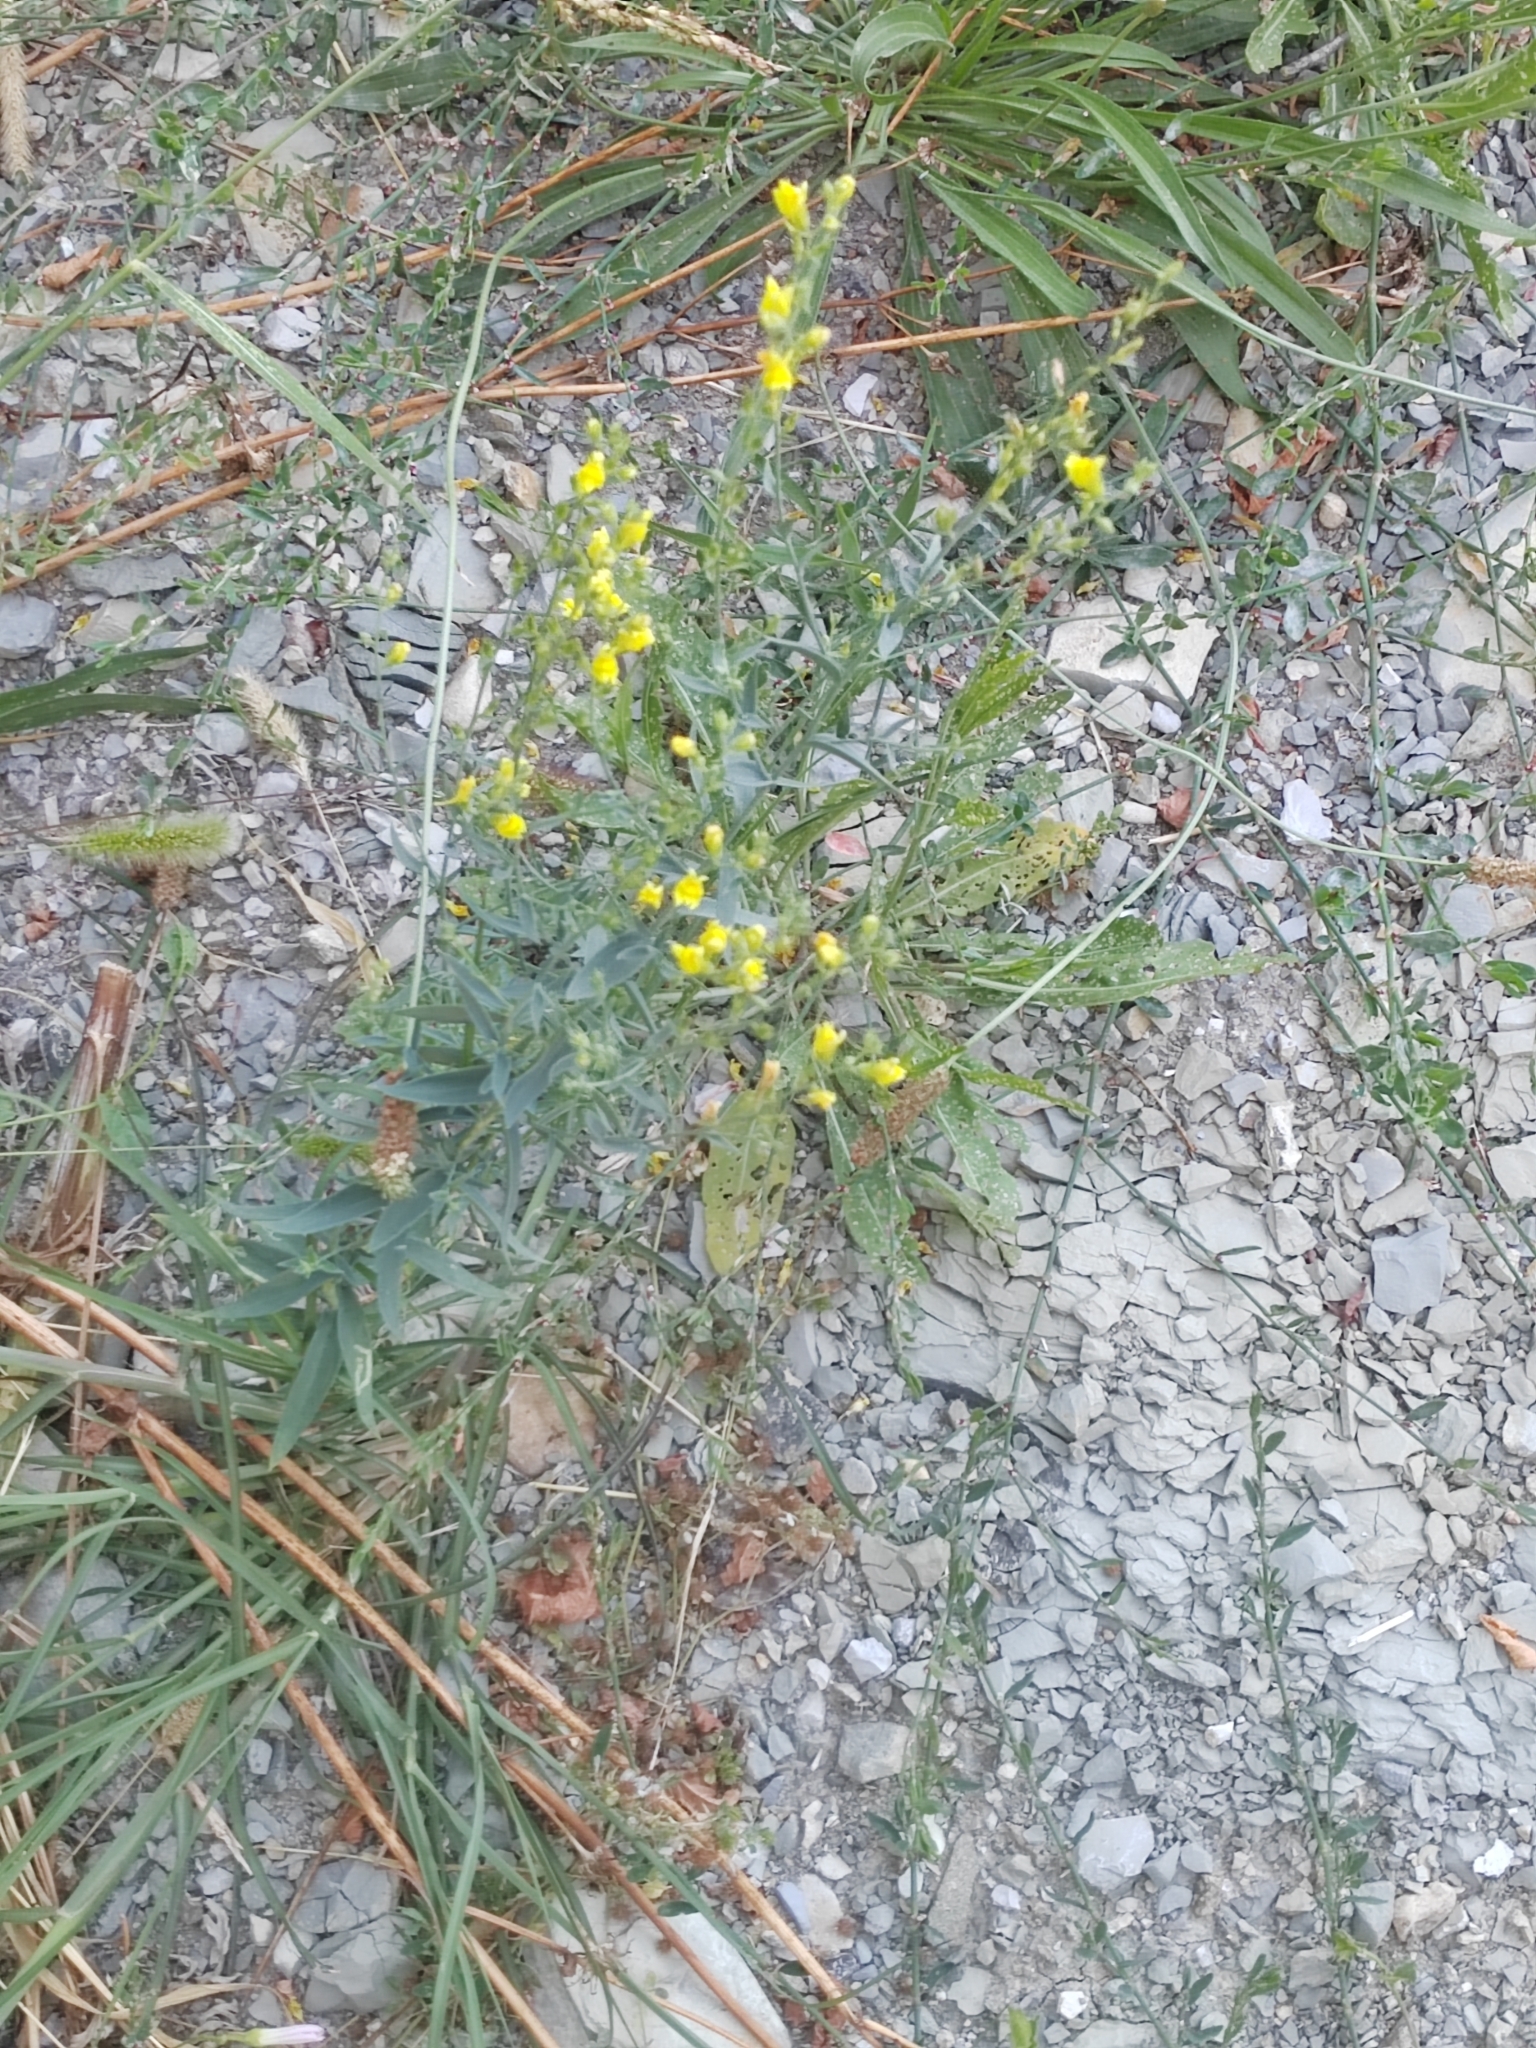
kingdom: Plantae
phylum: Tracheophyta
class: Magnoliopsida
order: Lamiales
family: Plantaginaceae
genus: Linaria
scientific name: Linaria genistifolia
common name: Broomleaf toadflax
